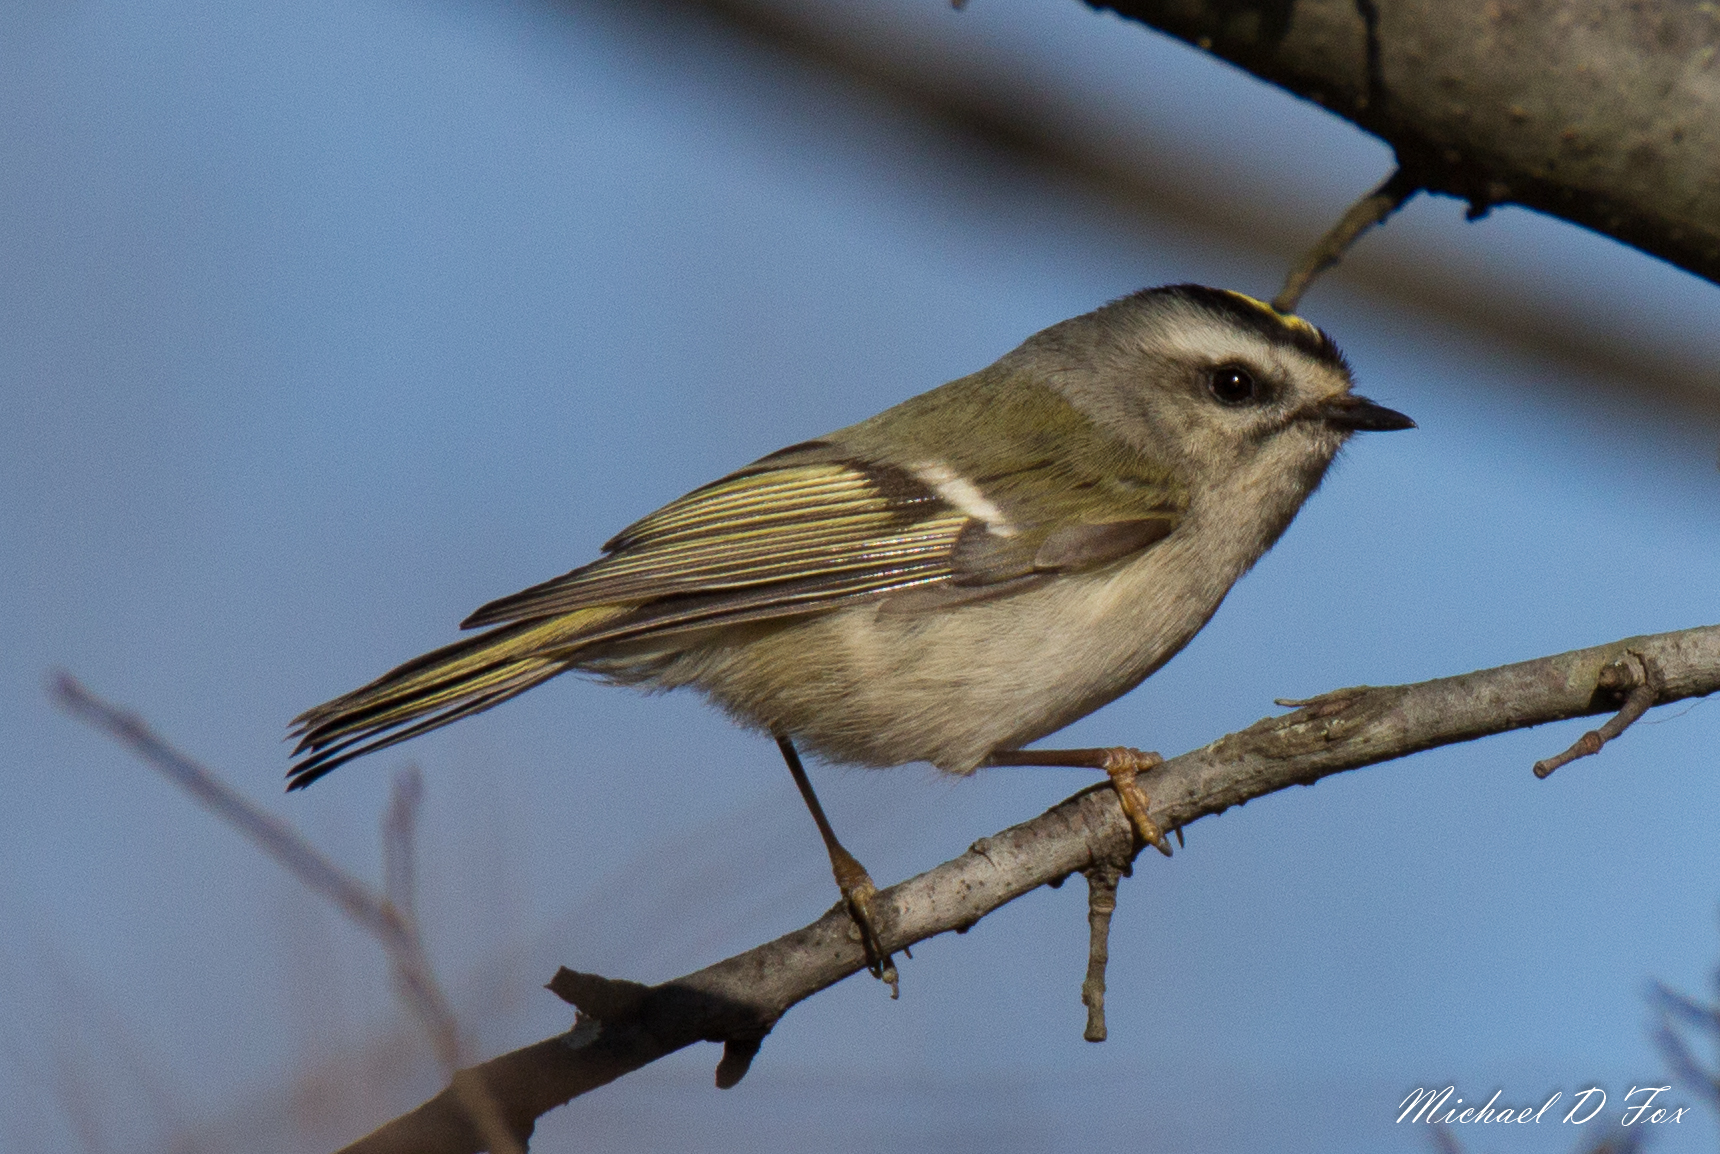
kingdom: Animalia
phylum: Chordata
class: Aves
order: Passeriformes
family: Regulidae
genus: Regulus
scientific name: Regulus satrapa
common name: Golden-crowned kinglet
